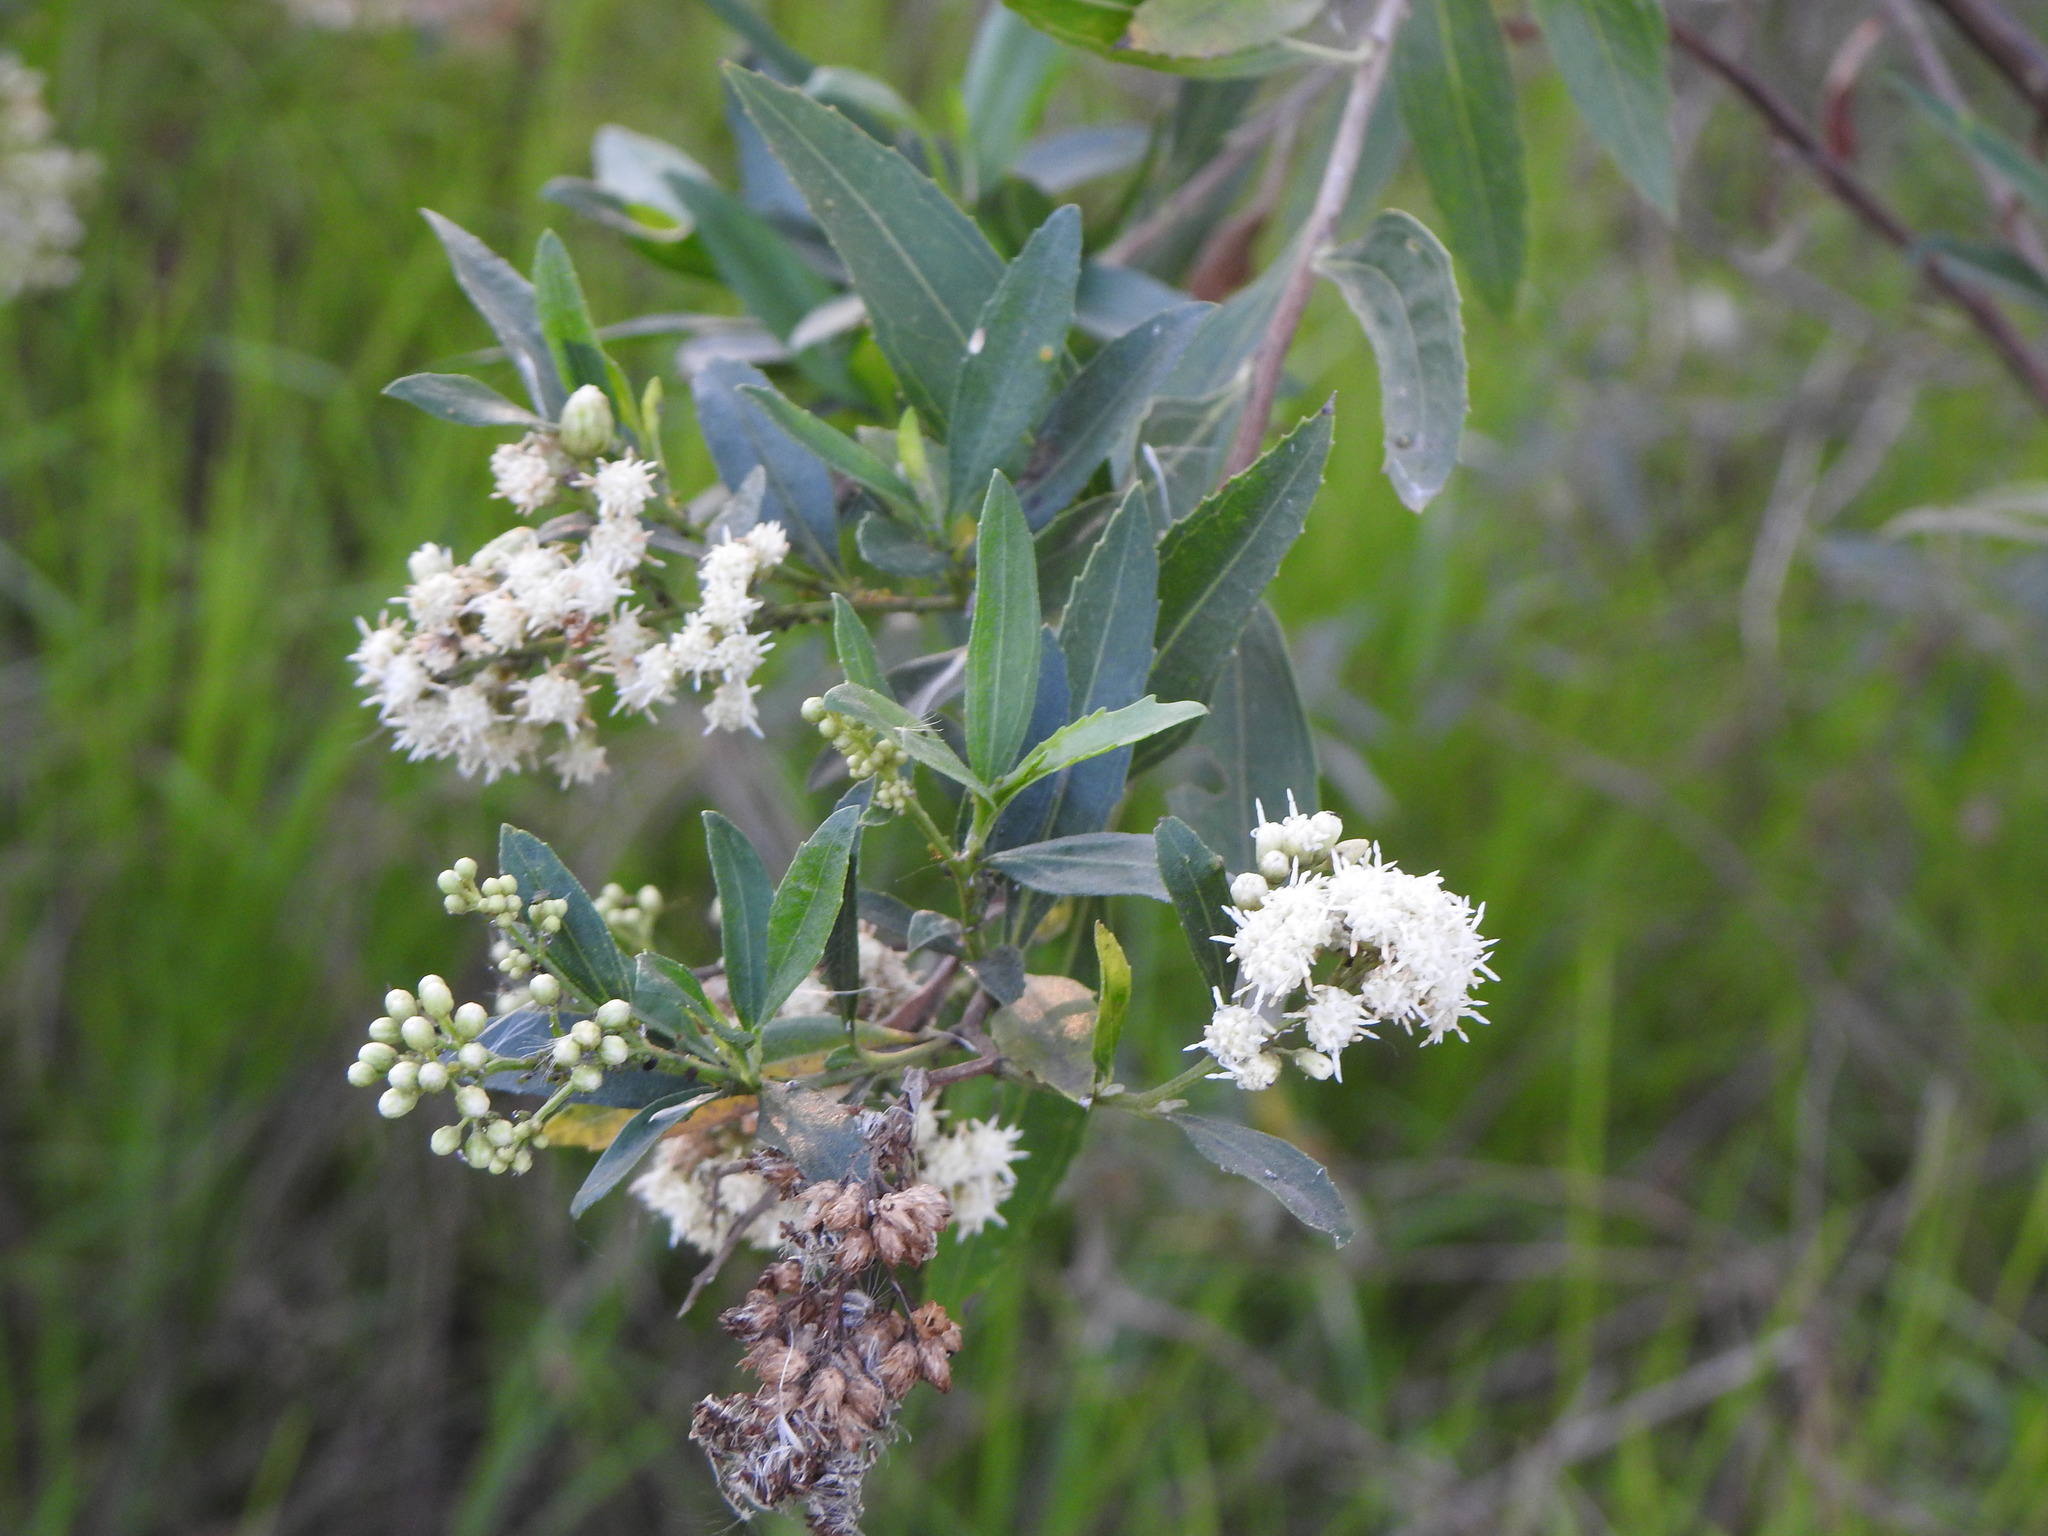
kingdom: Plantae
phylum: Tracheophyta
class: Magnoliopsida
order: Asterales
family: Asteraceae
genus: Baccharis
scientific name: Baccharis salicifolia
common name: Sticky baccharis
